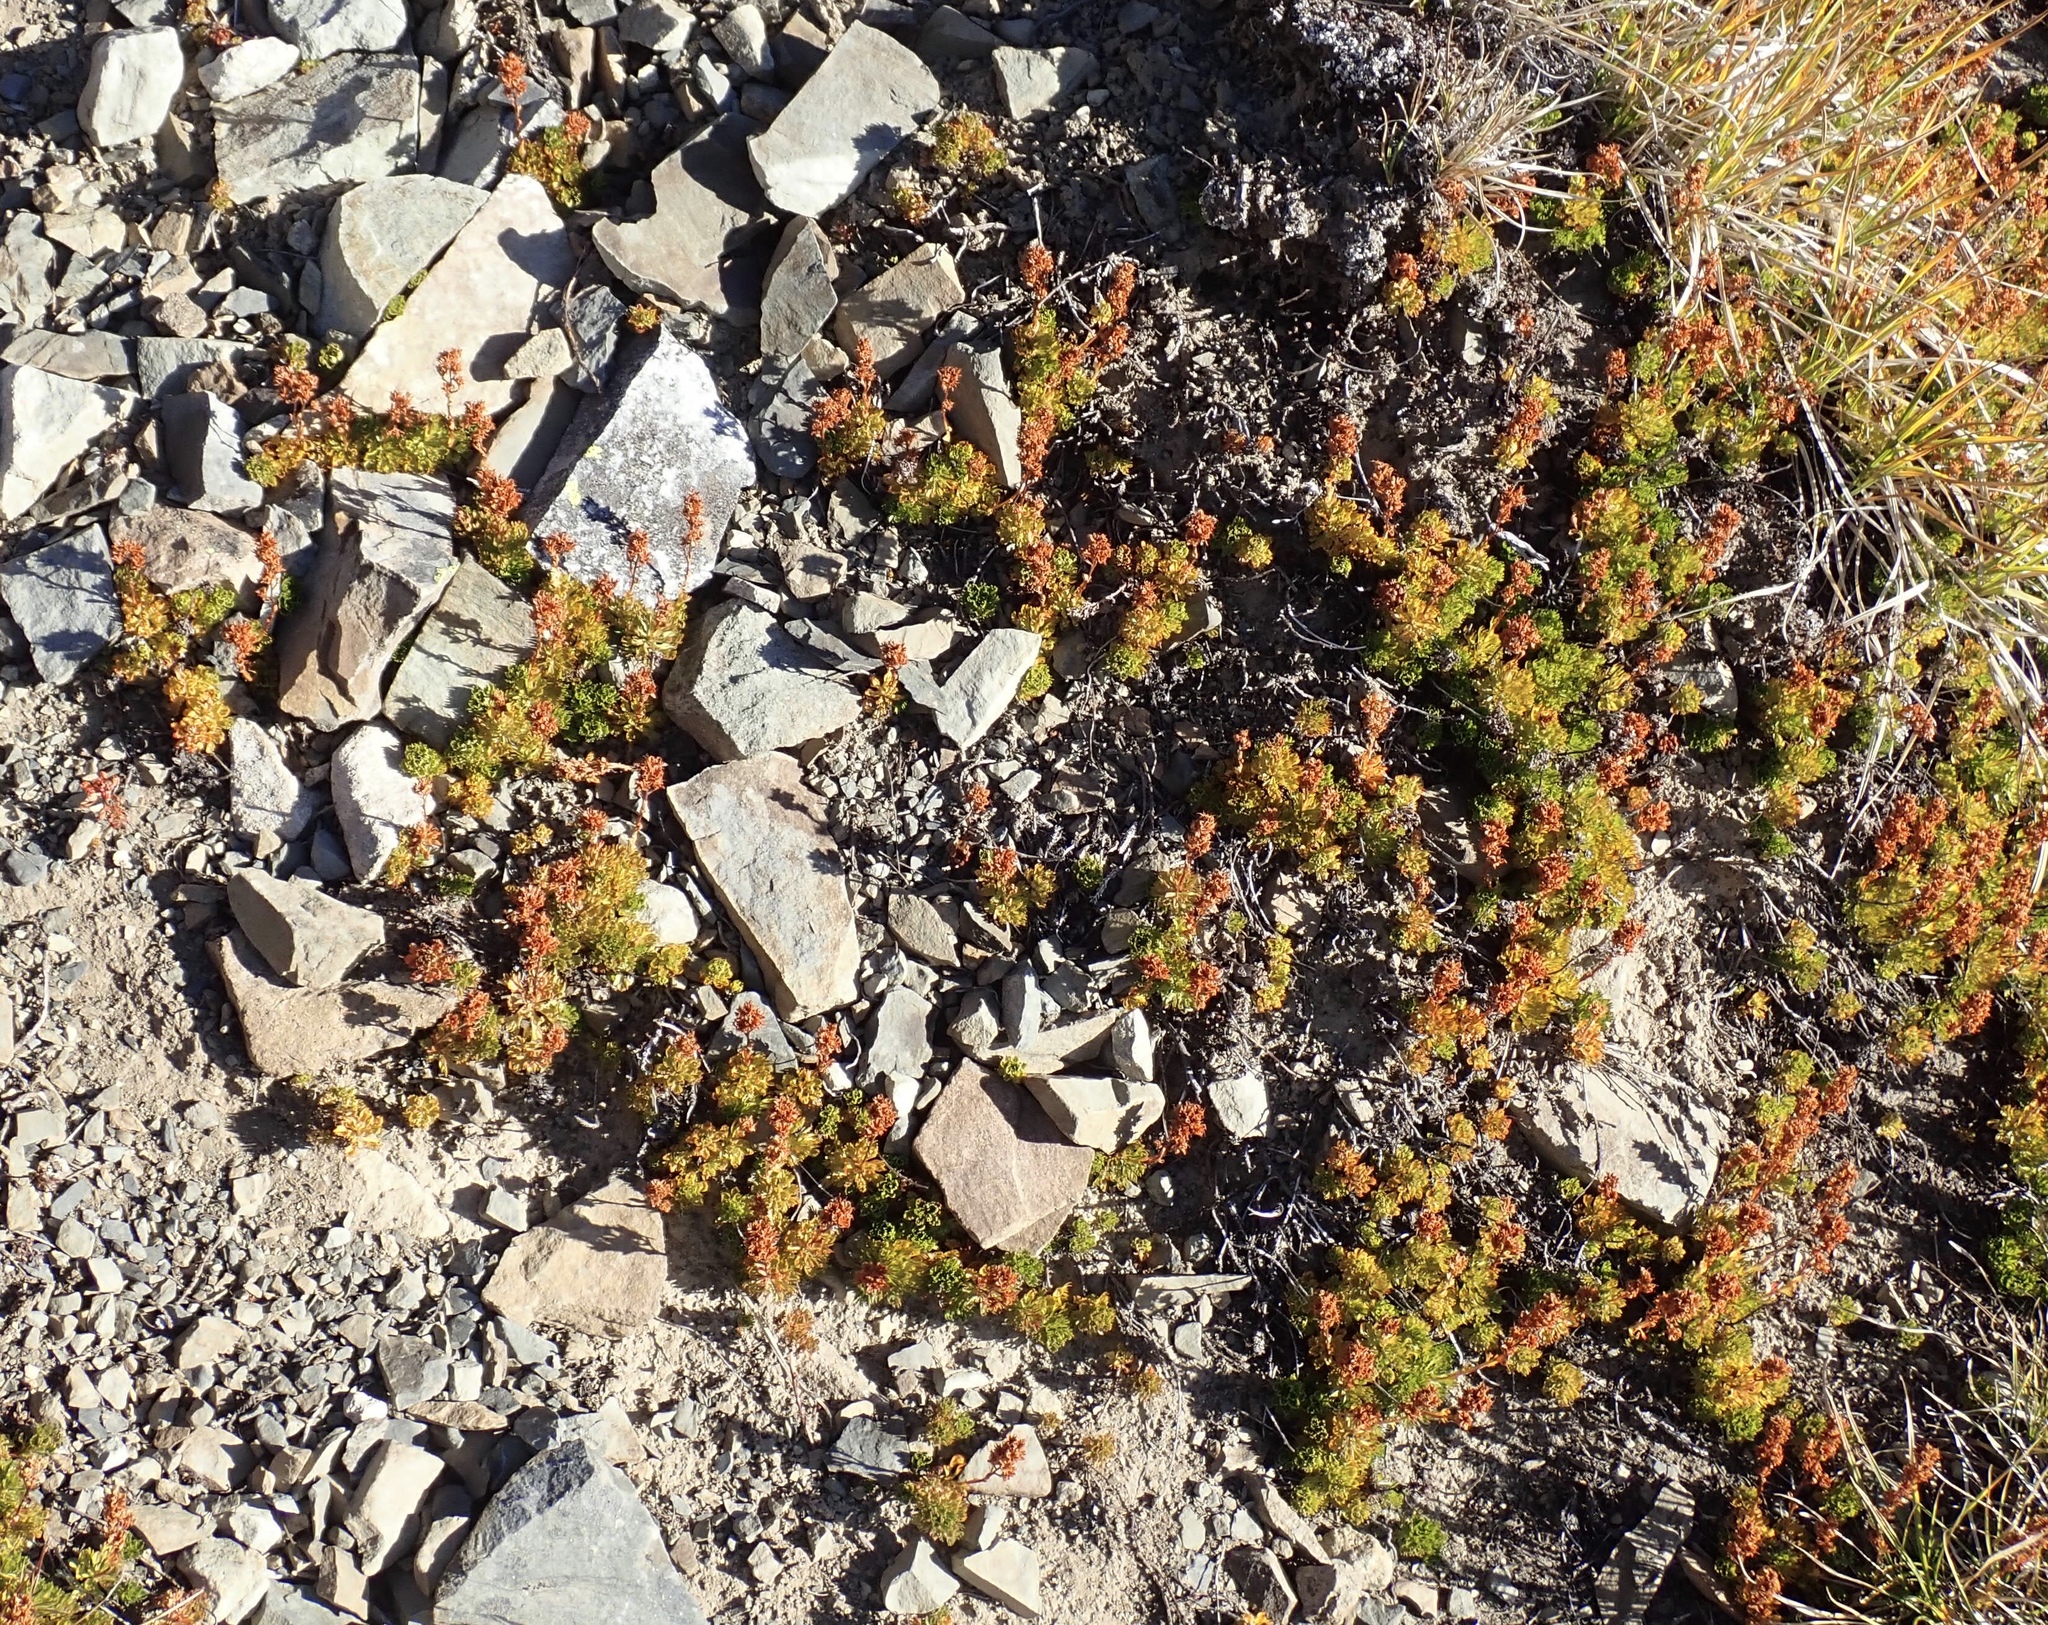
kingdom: Plantae
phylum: Tracheophyta
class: Magnoliopsida
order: Rosales
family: Rosaceae
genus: Luetkea
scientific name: Luetkea pectinata
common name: Partridgefoot
